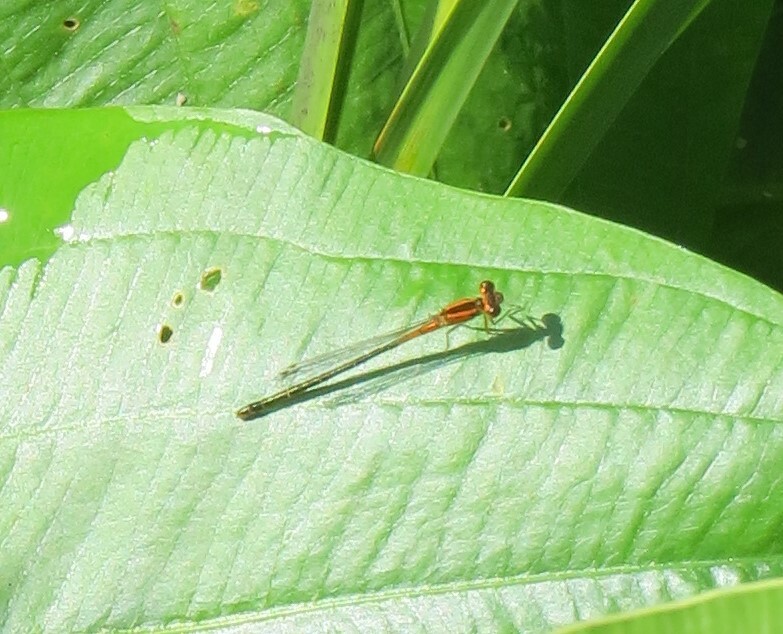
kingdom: Animalia
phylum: Arthropoda
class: Insecta
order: Odonata
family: Coenagrionidae
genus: Ischnura
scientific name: Ischnura verticalis
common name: Eastern forktail
